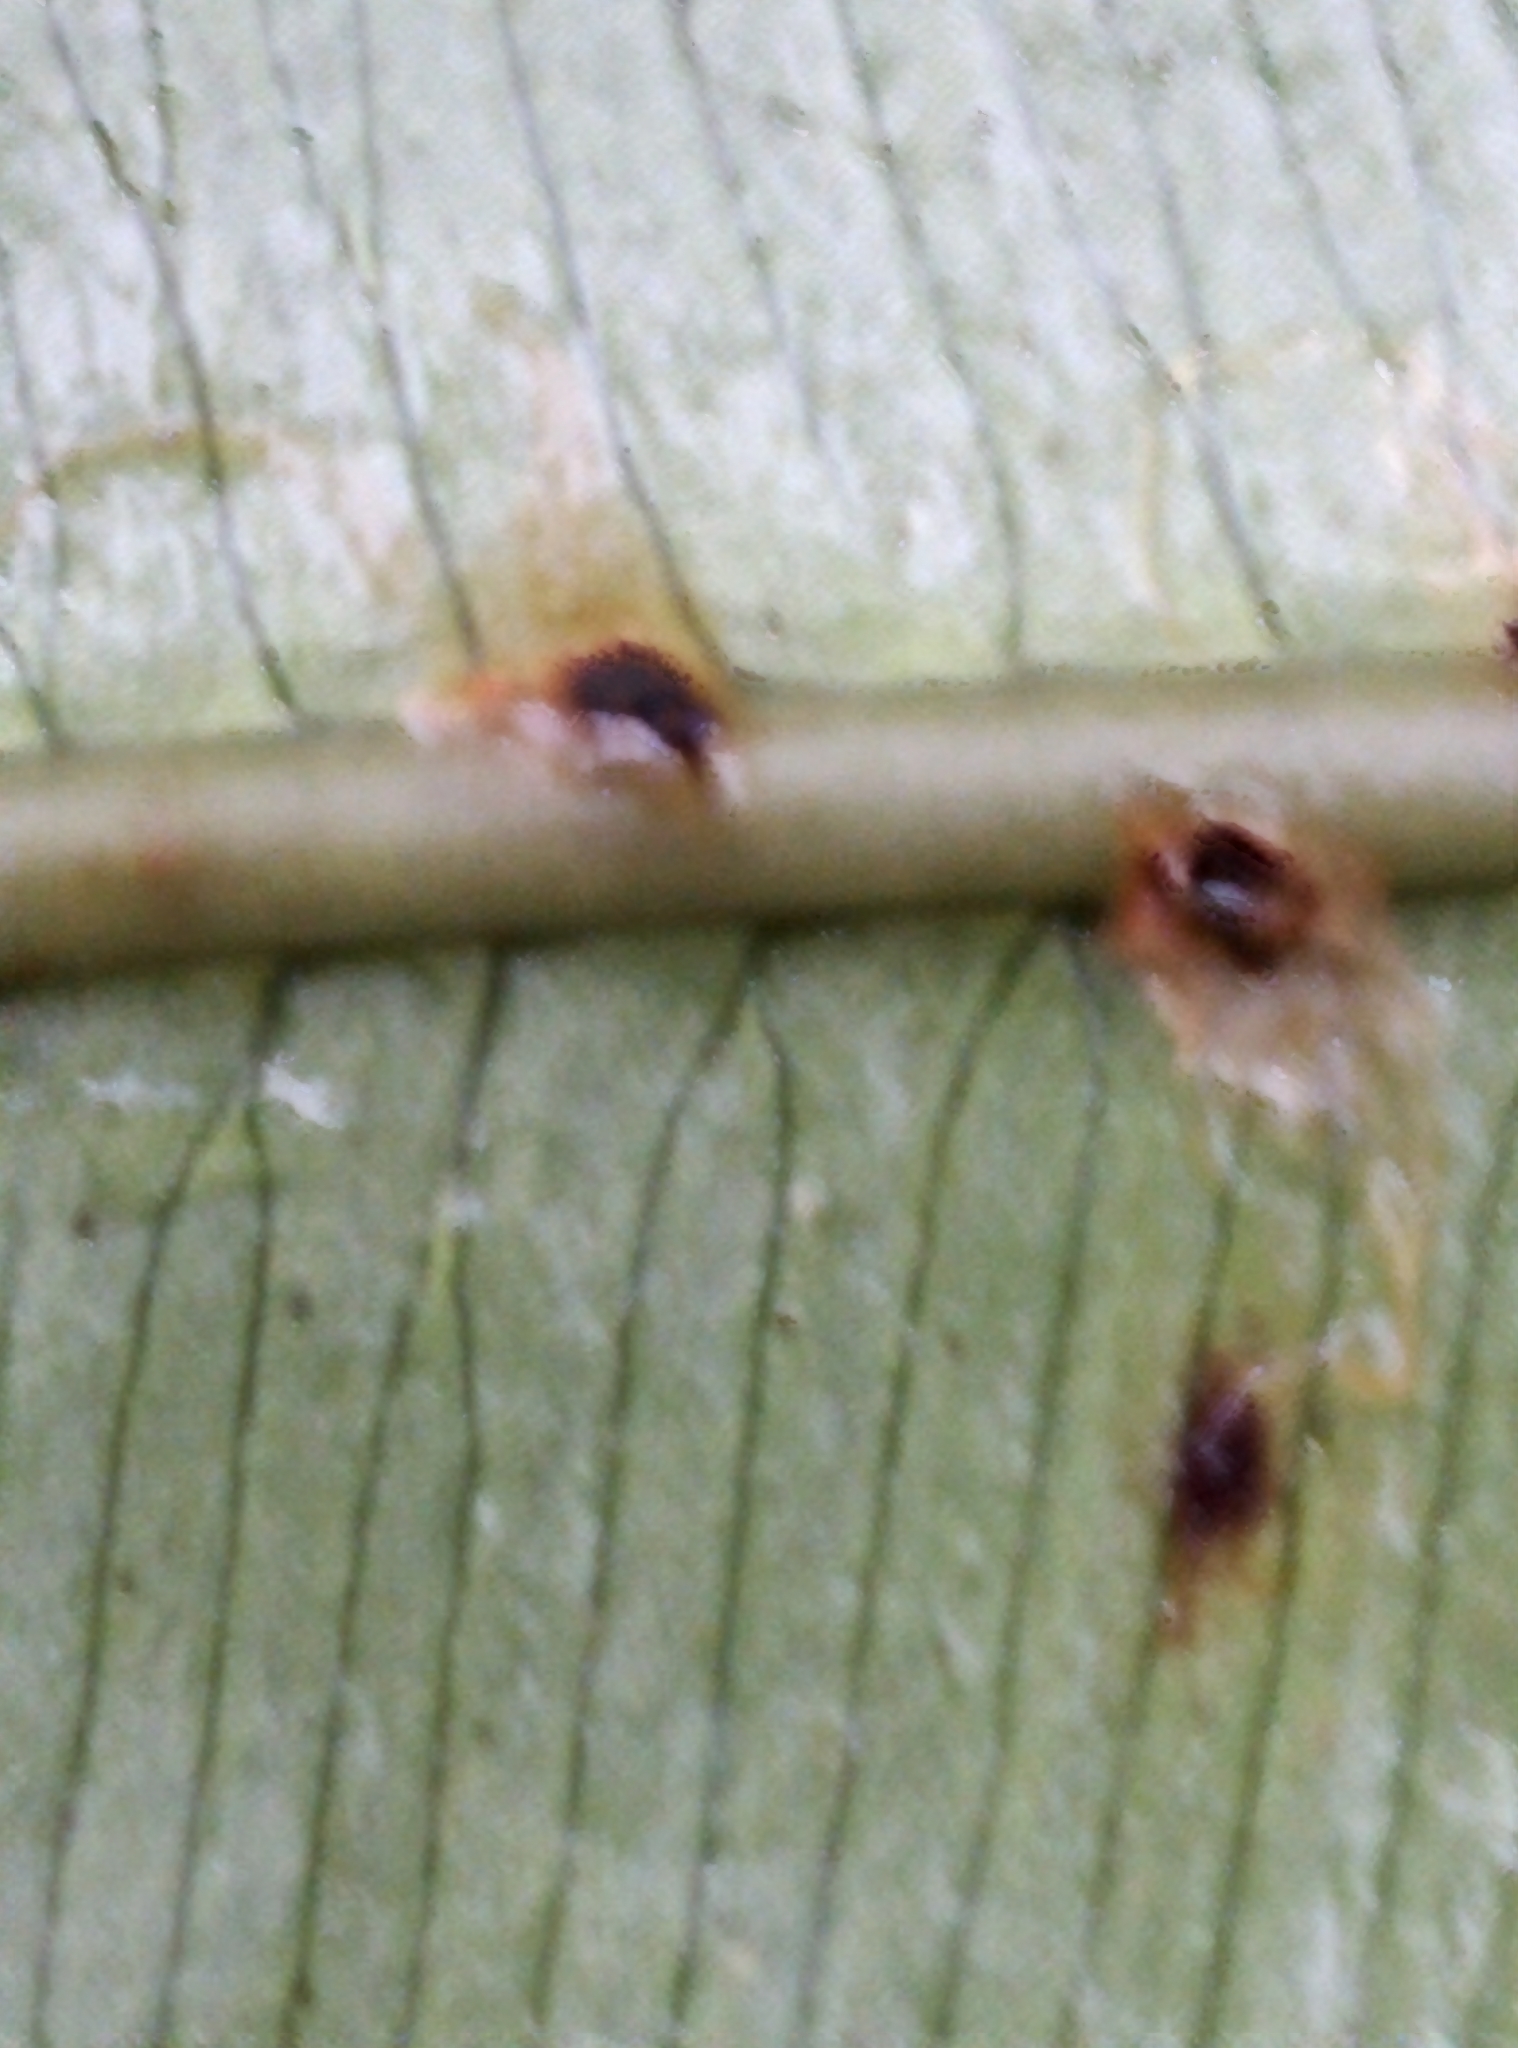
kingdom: Plantae
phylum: Tracheophyta
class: Polypodiopsida
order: Polypodiales
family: Blechnaceae
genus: Parablechnum
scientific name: Parablechnum novae-zelandiae
